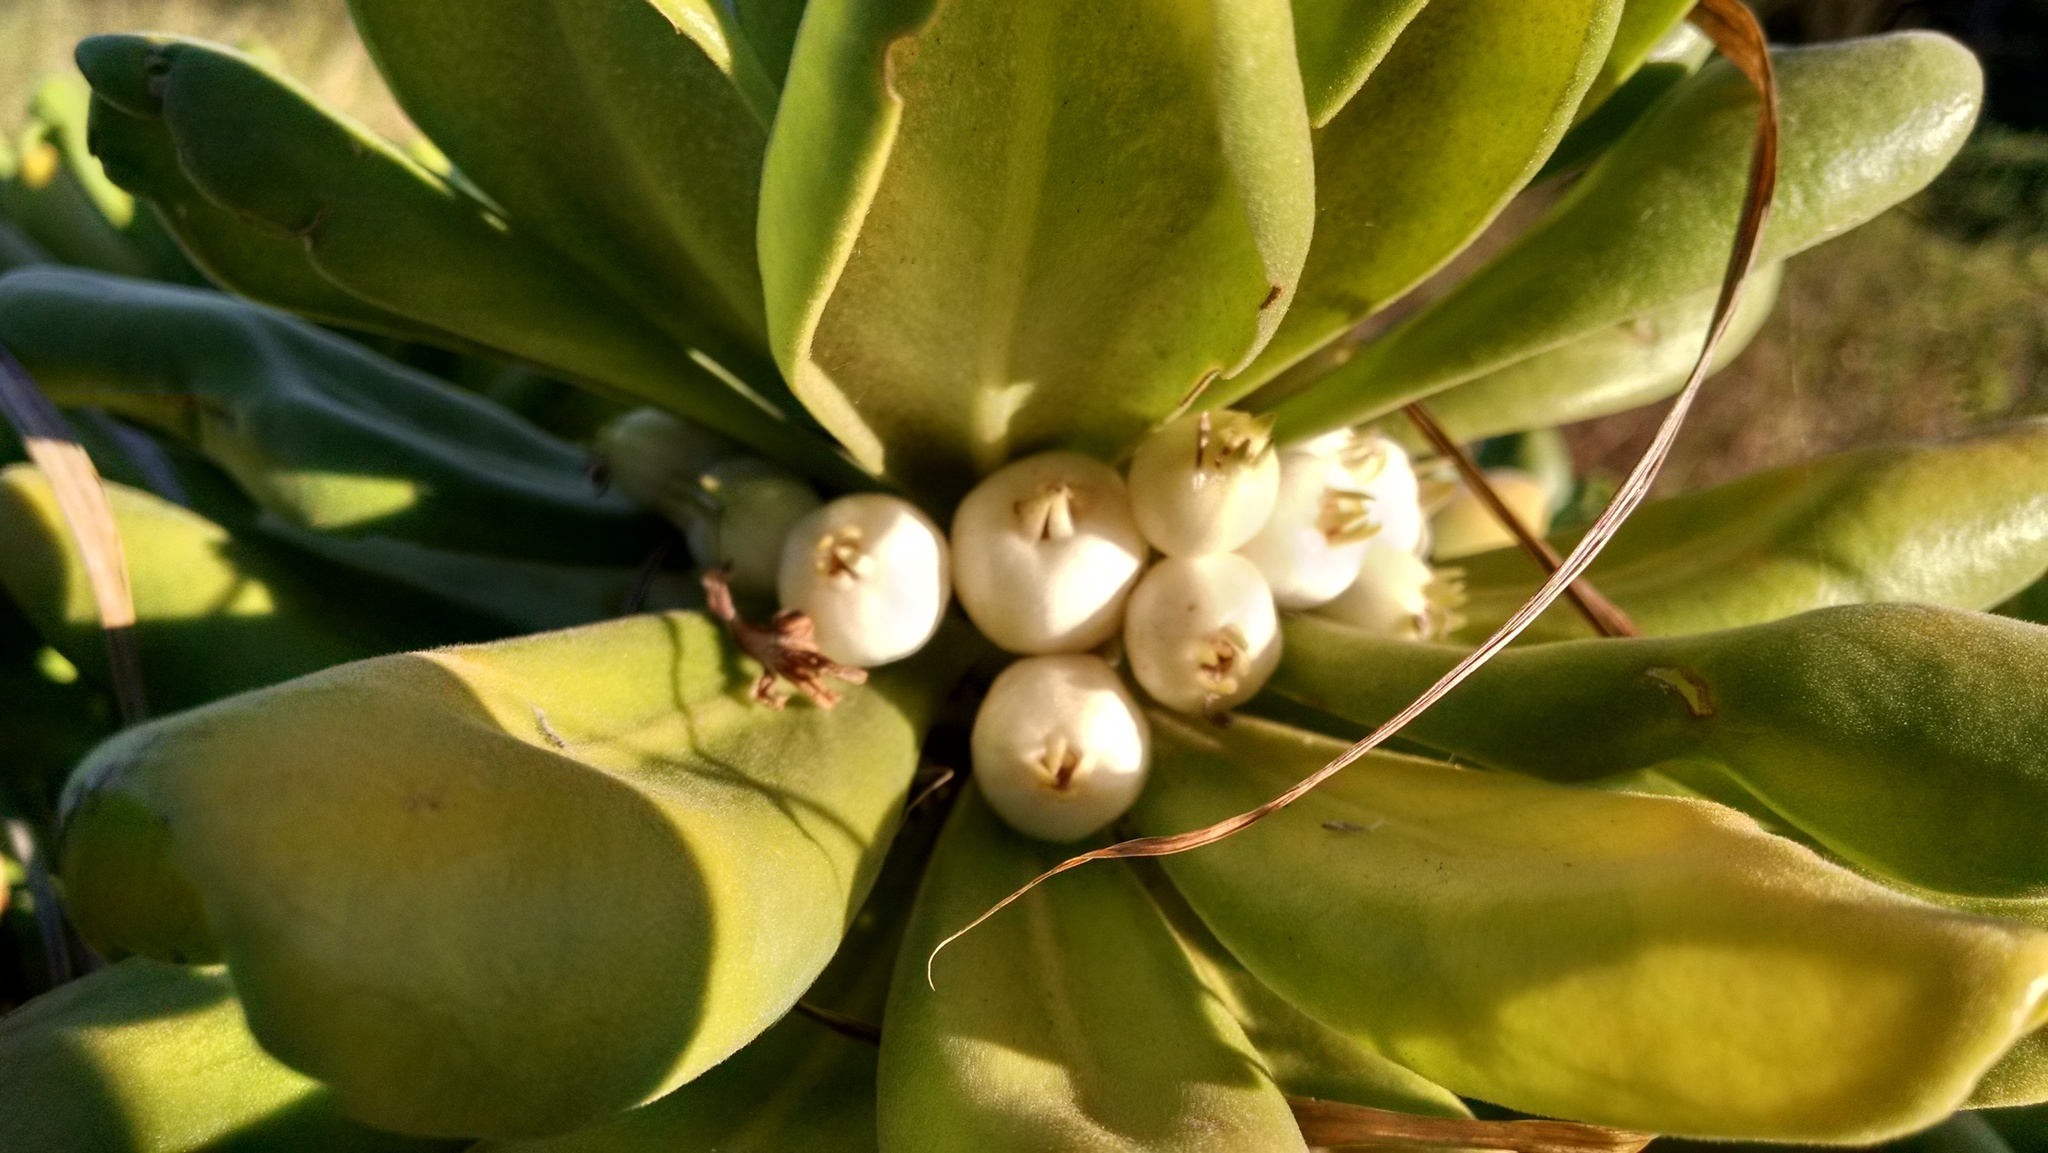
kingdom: Plantae
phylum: Tracheophyta
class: Magnoliopsida
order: Asterales
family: Goodeniaceae
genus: Scaevola
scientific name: Scaevola taccada
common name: Sea lettucetree
